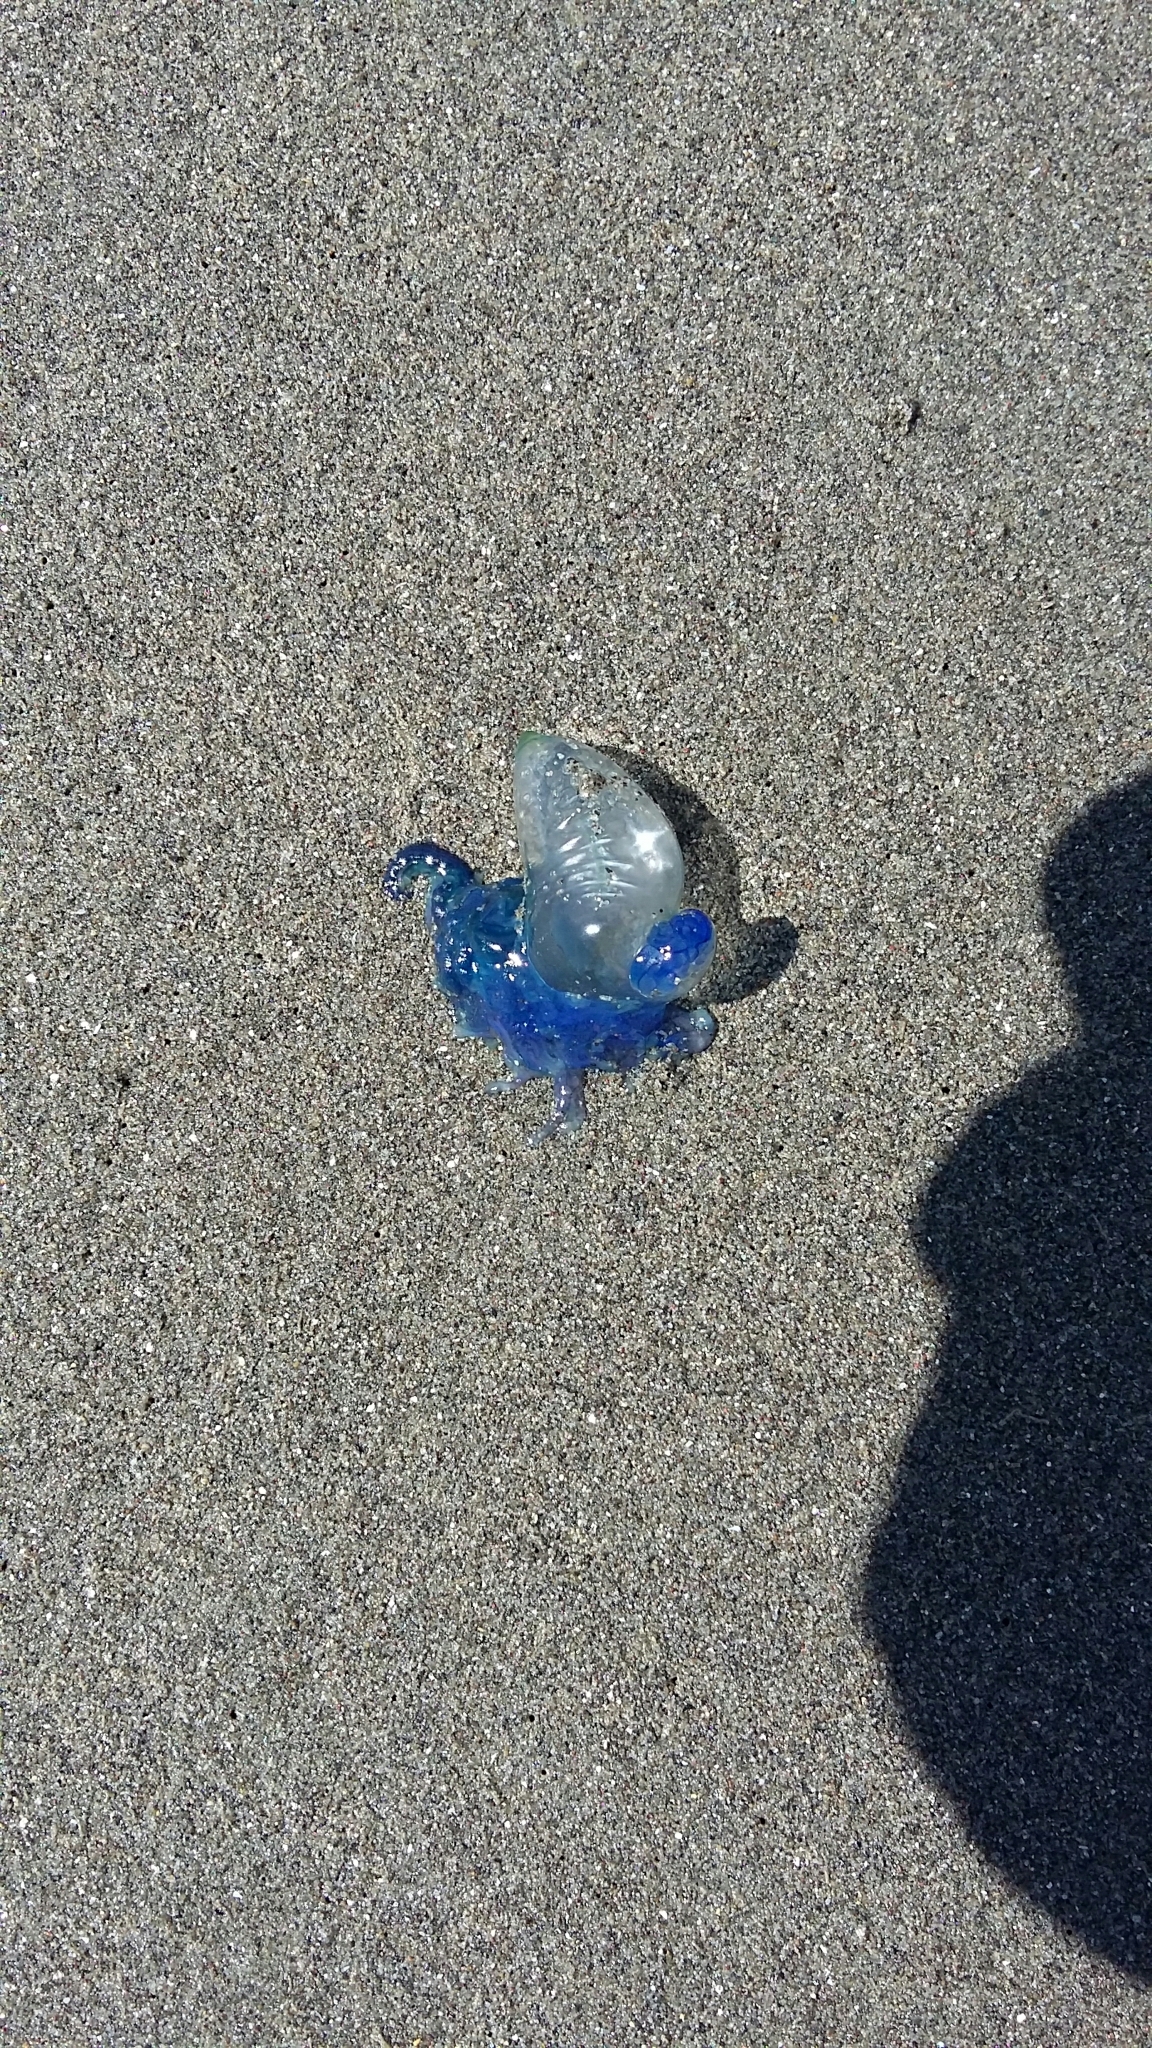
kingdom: Animalia
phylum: Cnidaria
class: Hydrozoa
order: Siphonophorae
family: Physaliidae
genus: Physalia
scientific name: Physalia physalis
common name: Portuguese man-of-war
